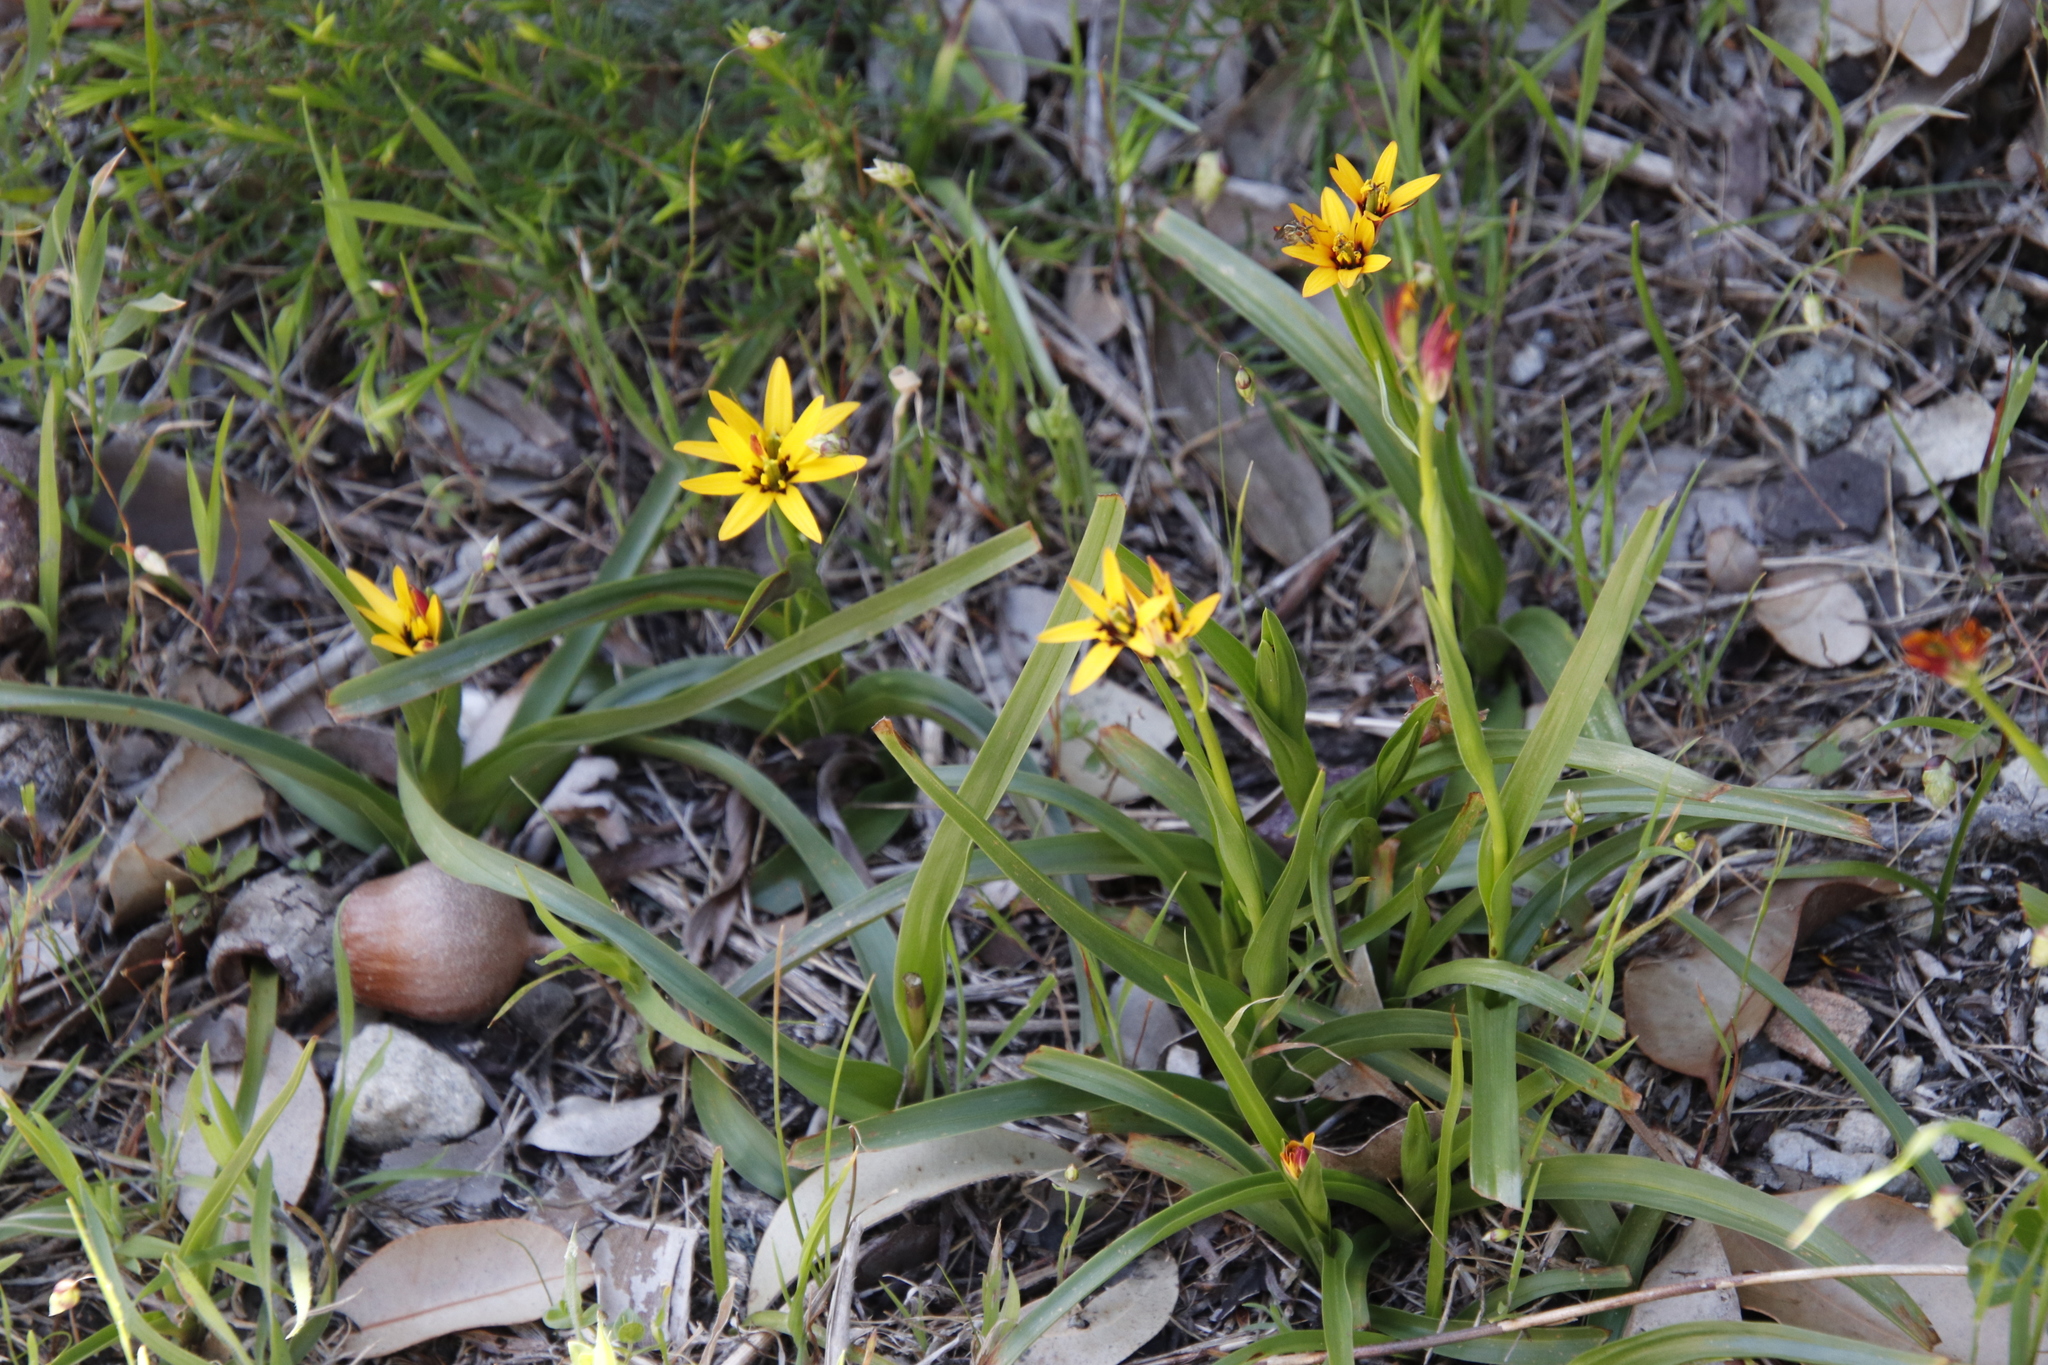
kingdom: Plantae
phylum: Tracheophyta
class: Liliopsida
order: Liliales
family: Colchicaceae
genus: Baeometra
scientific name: Baeometra uniflora
